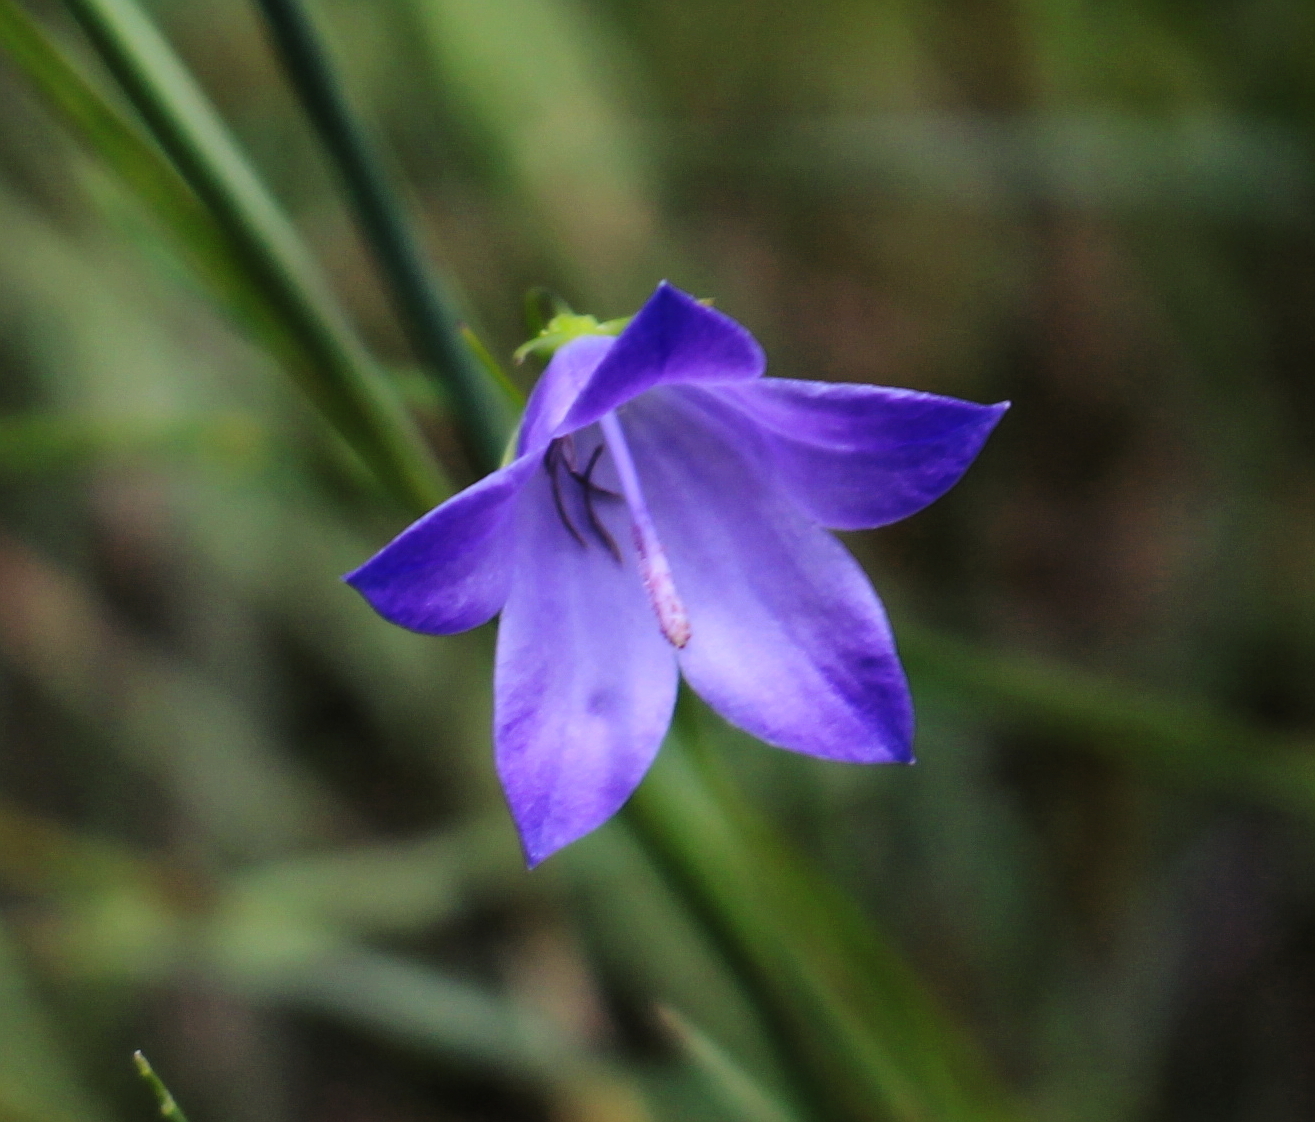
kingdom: Plantae
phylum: Tracheophyta
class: Magnoliopsida
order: Asterales
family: Campanulaceae
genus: Campanula
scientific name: Campanula intercedens
